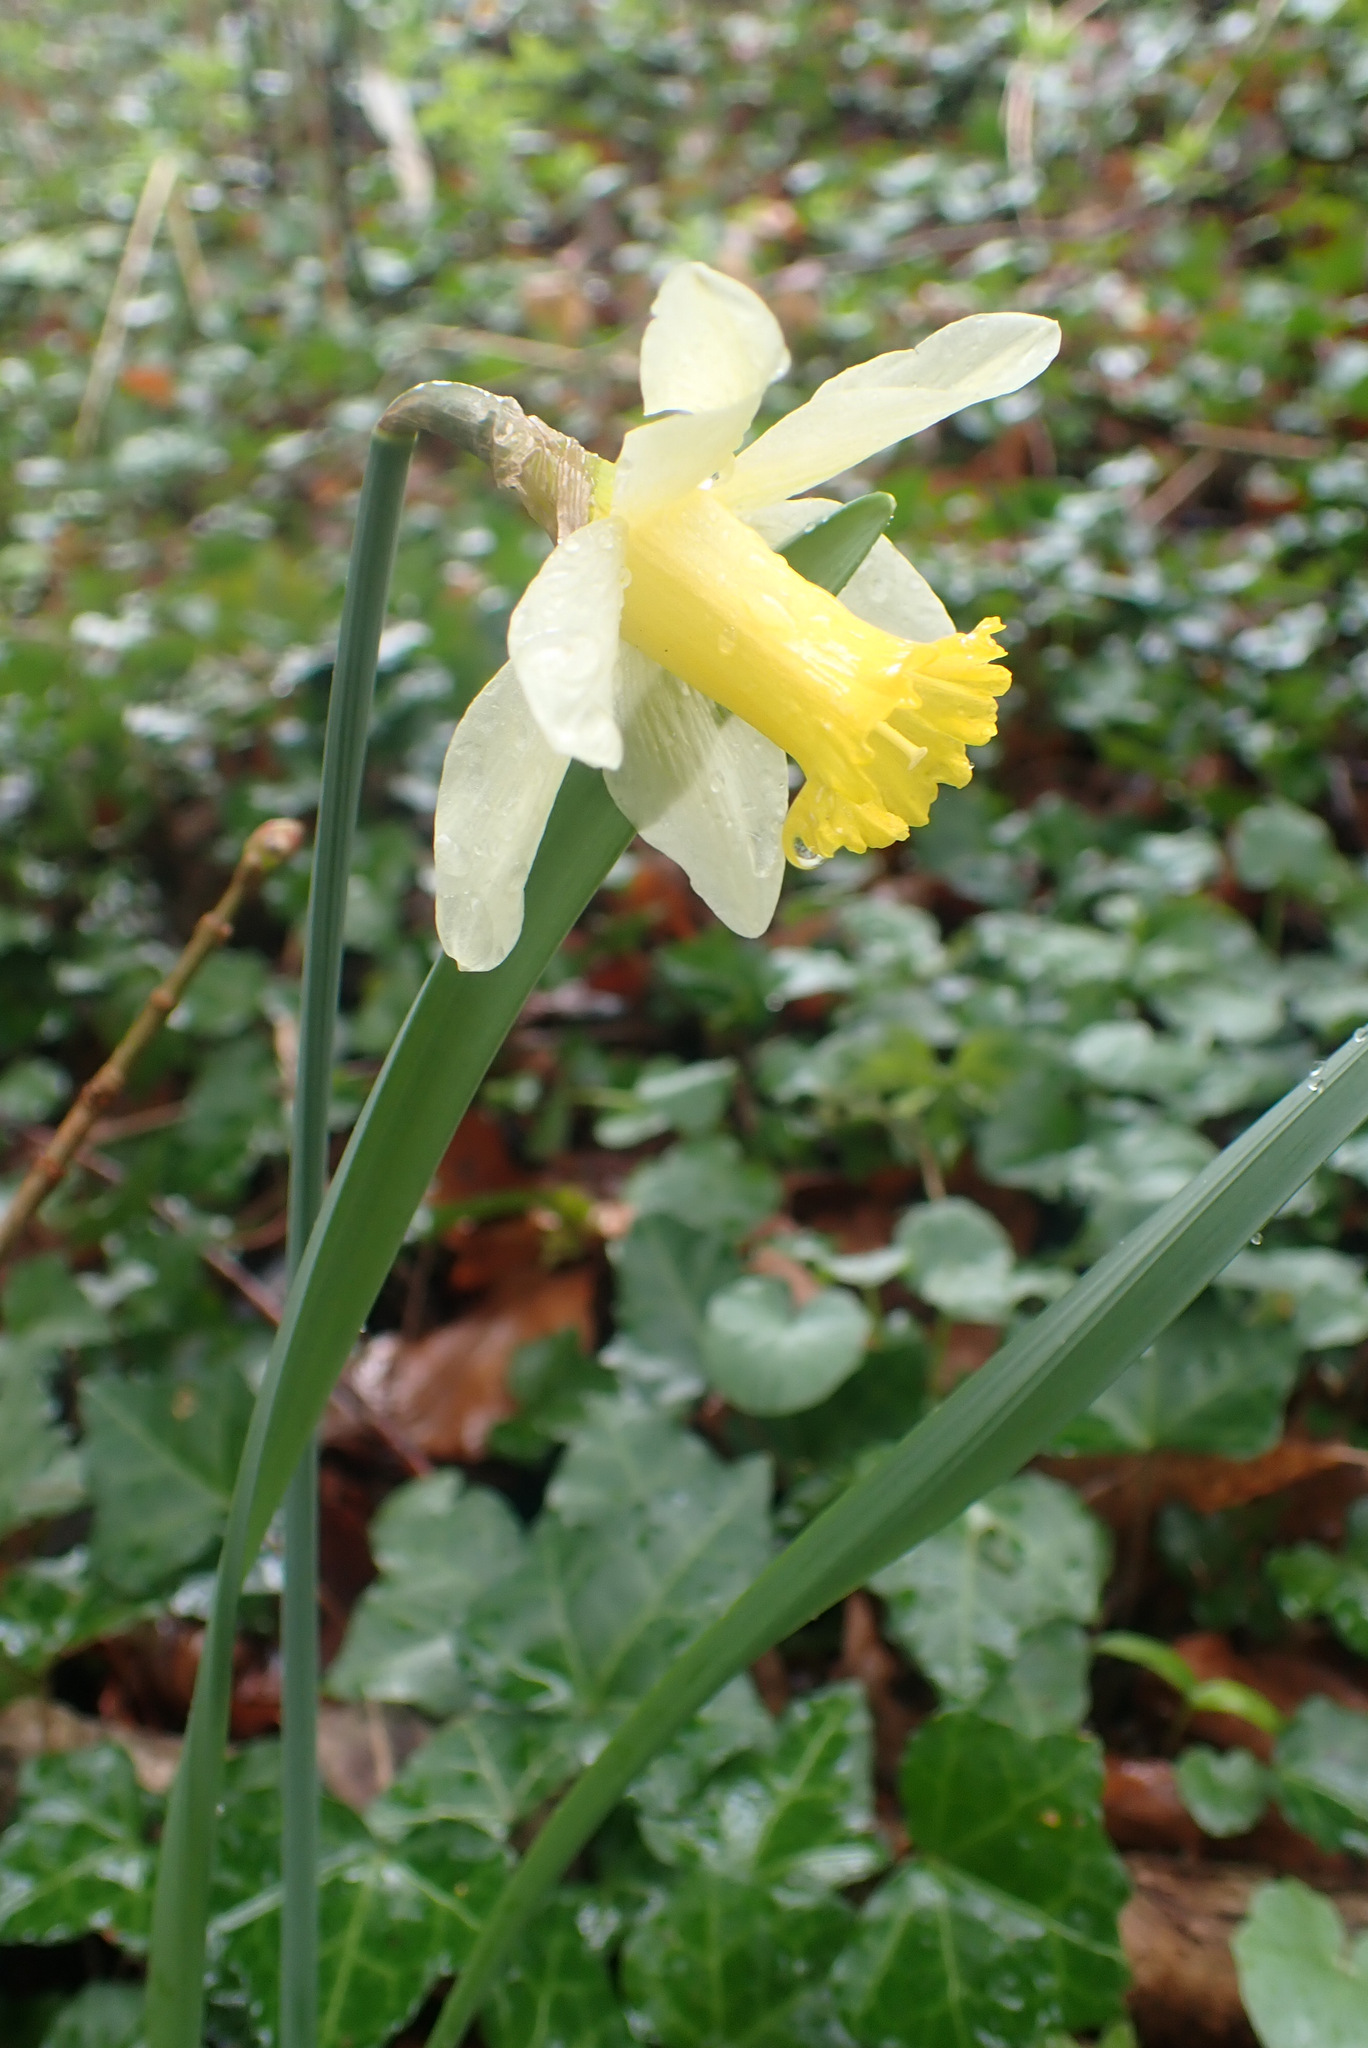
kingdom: Plantae
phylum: Tracheophyta
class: Liliopsida
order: Asparagales
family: Amaryllidaceae
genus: Narcissus
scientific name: Narcissus pseudonarcissus
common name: Daffodil
